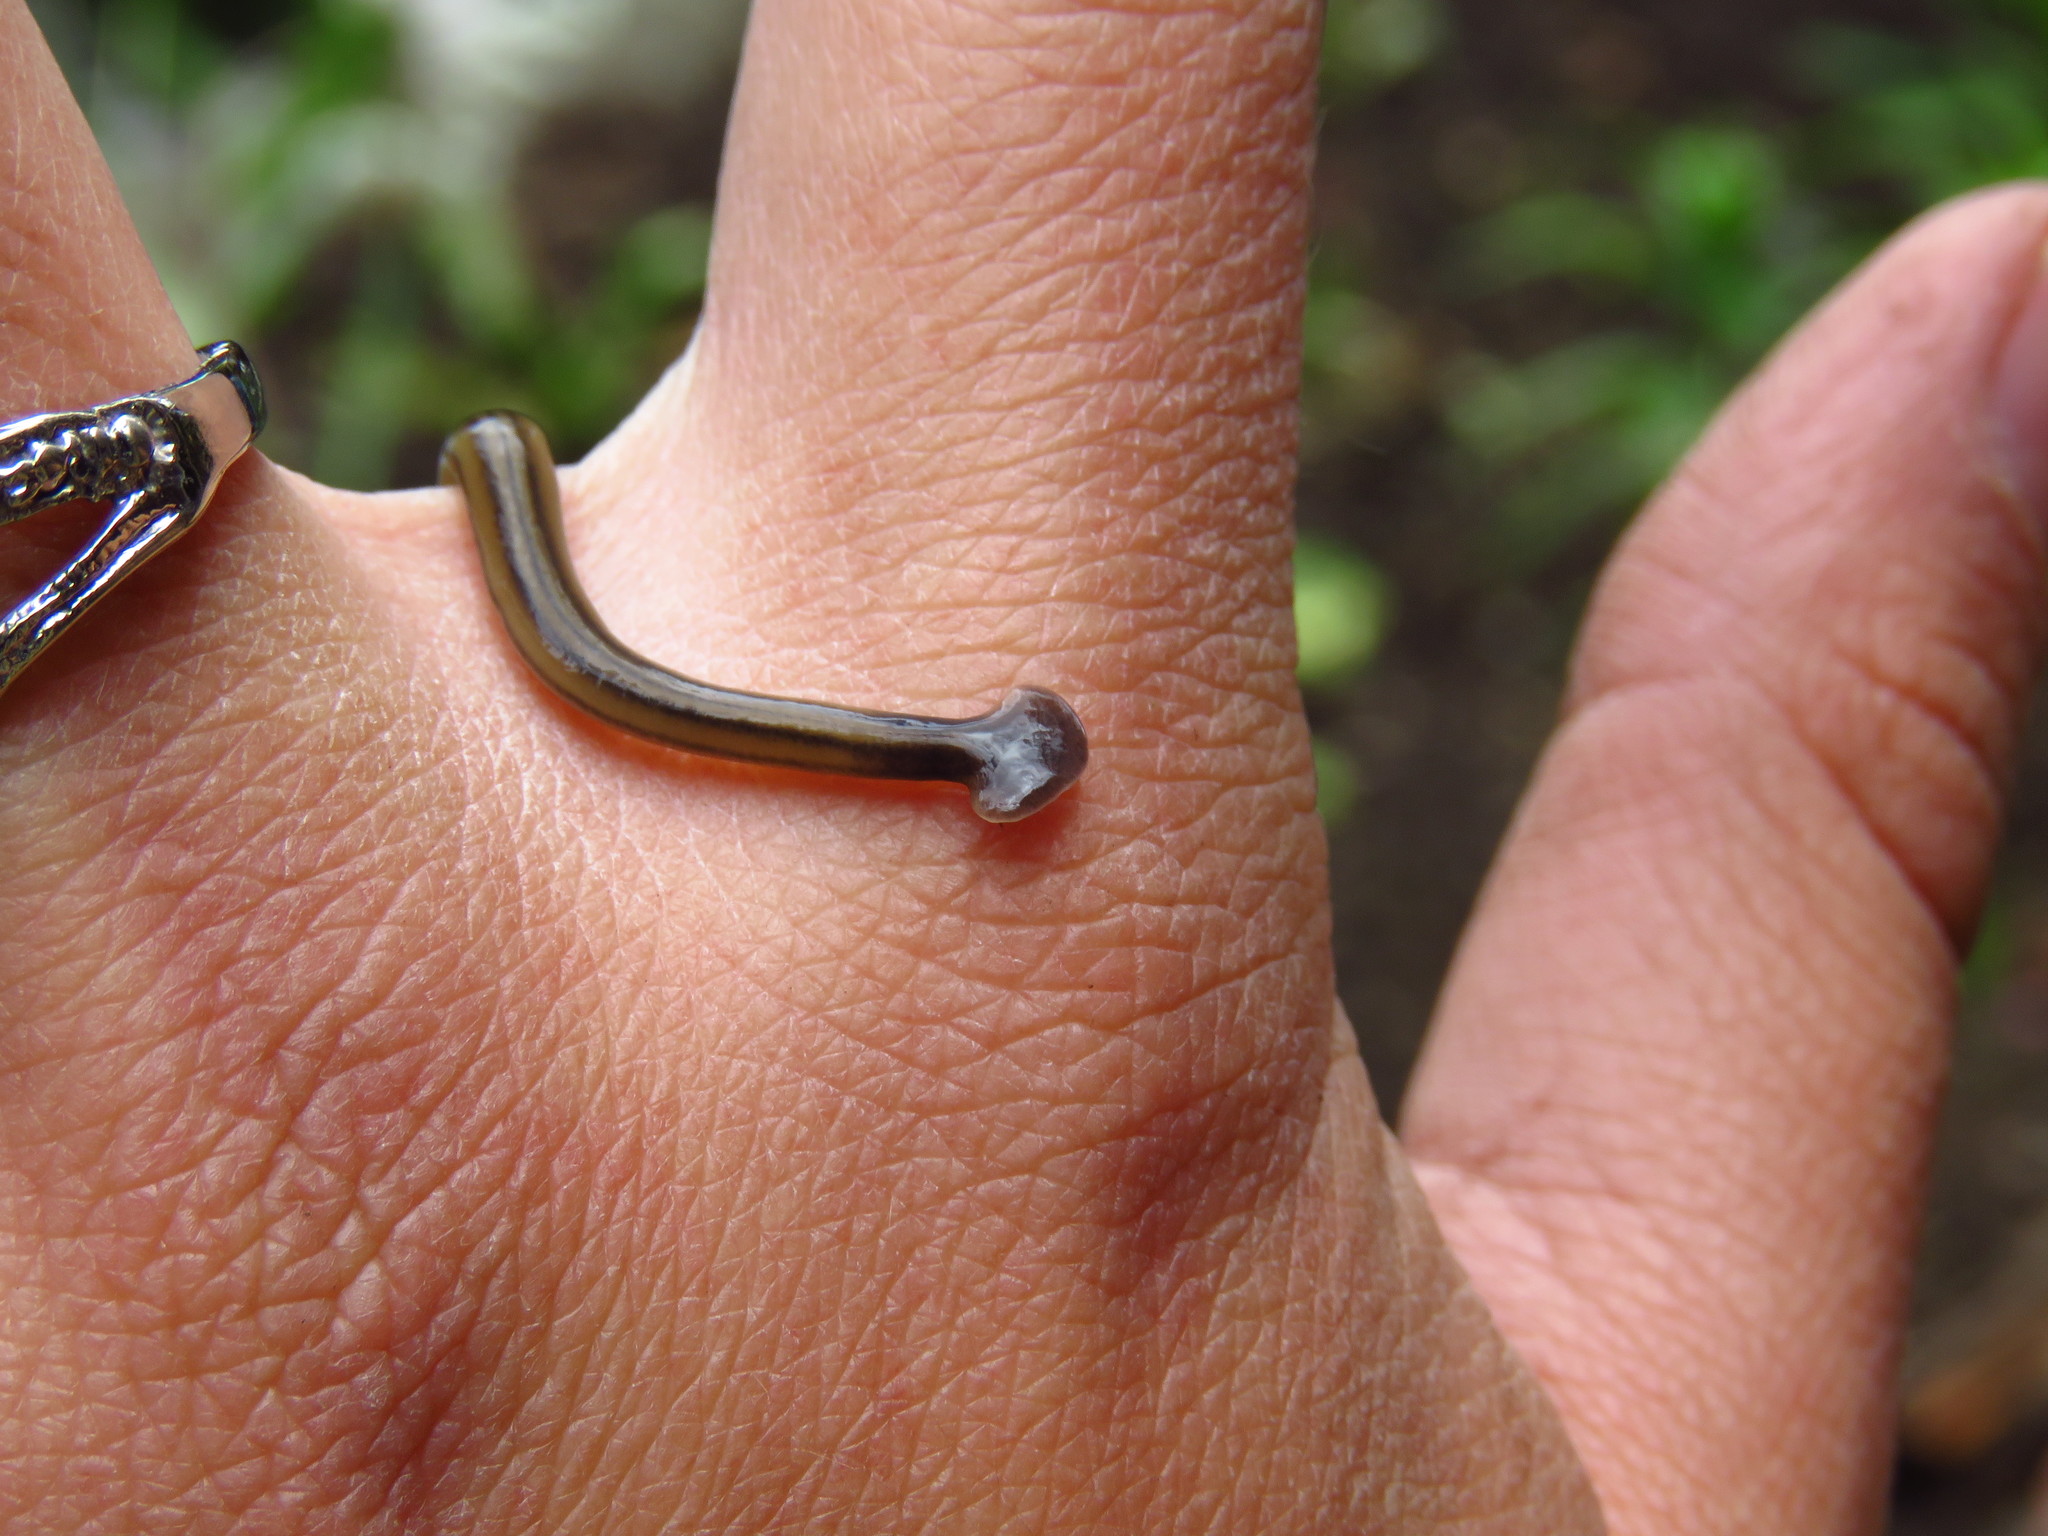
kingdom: Animalia
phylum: Platyhelminthes
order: Tricladida
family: Geoplanidae
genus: Bipalium
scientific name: Bipalium kewense
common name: Hammerhead flatworm
